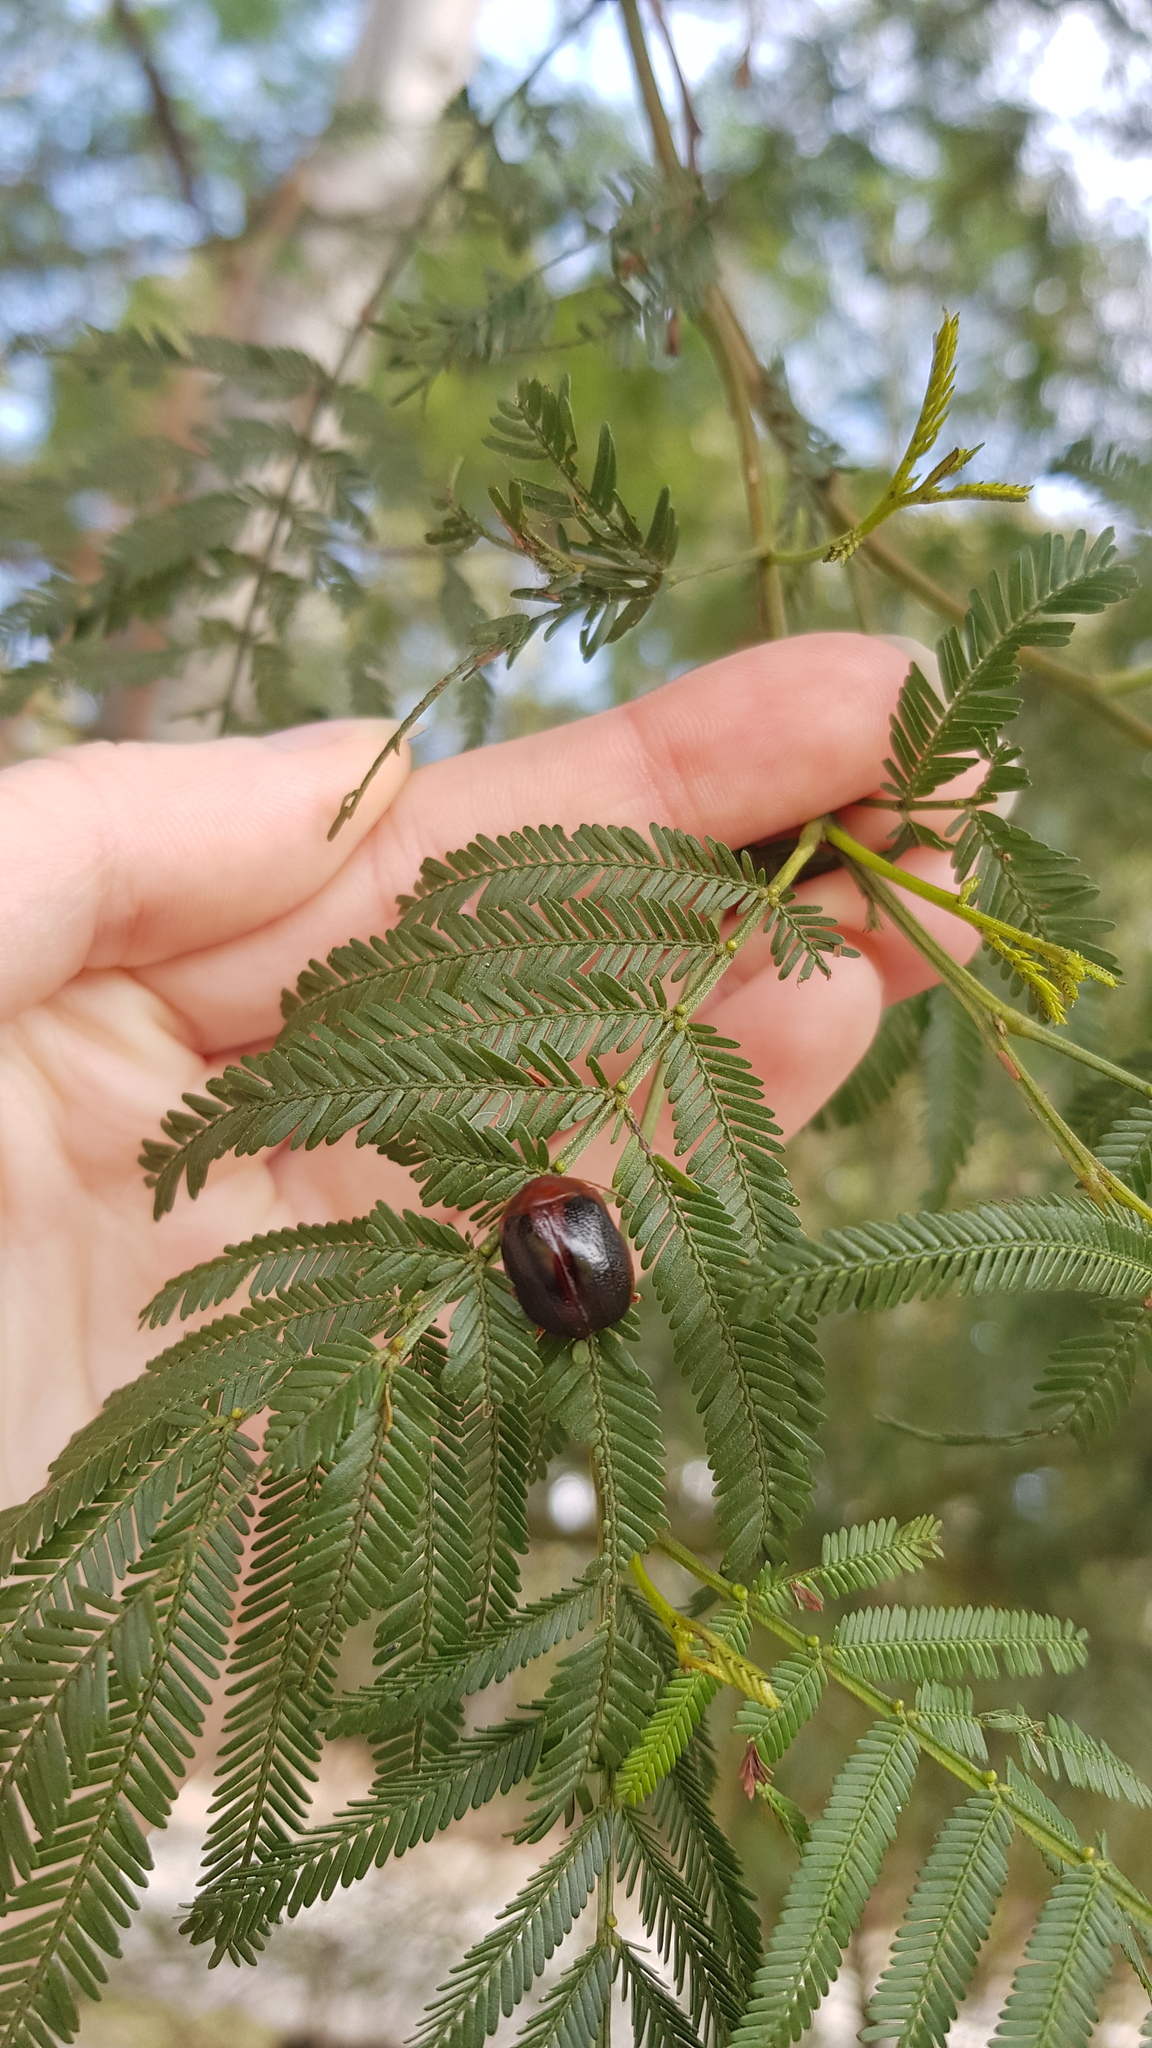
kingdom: Animalia
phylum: Arthropoda
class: Insecta
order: Coleoptera
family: Chrysomelidae
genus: Dicranosterna
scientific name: Dicranosterna
